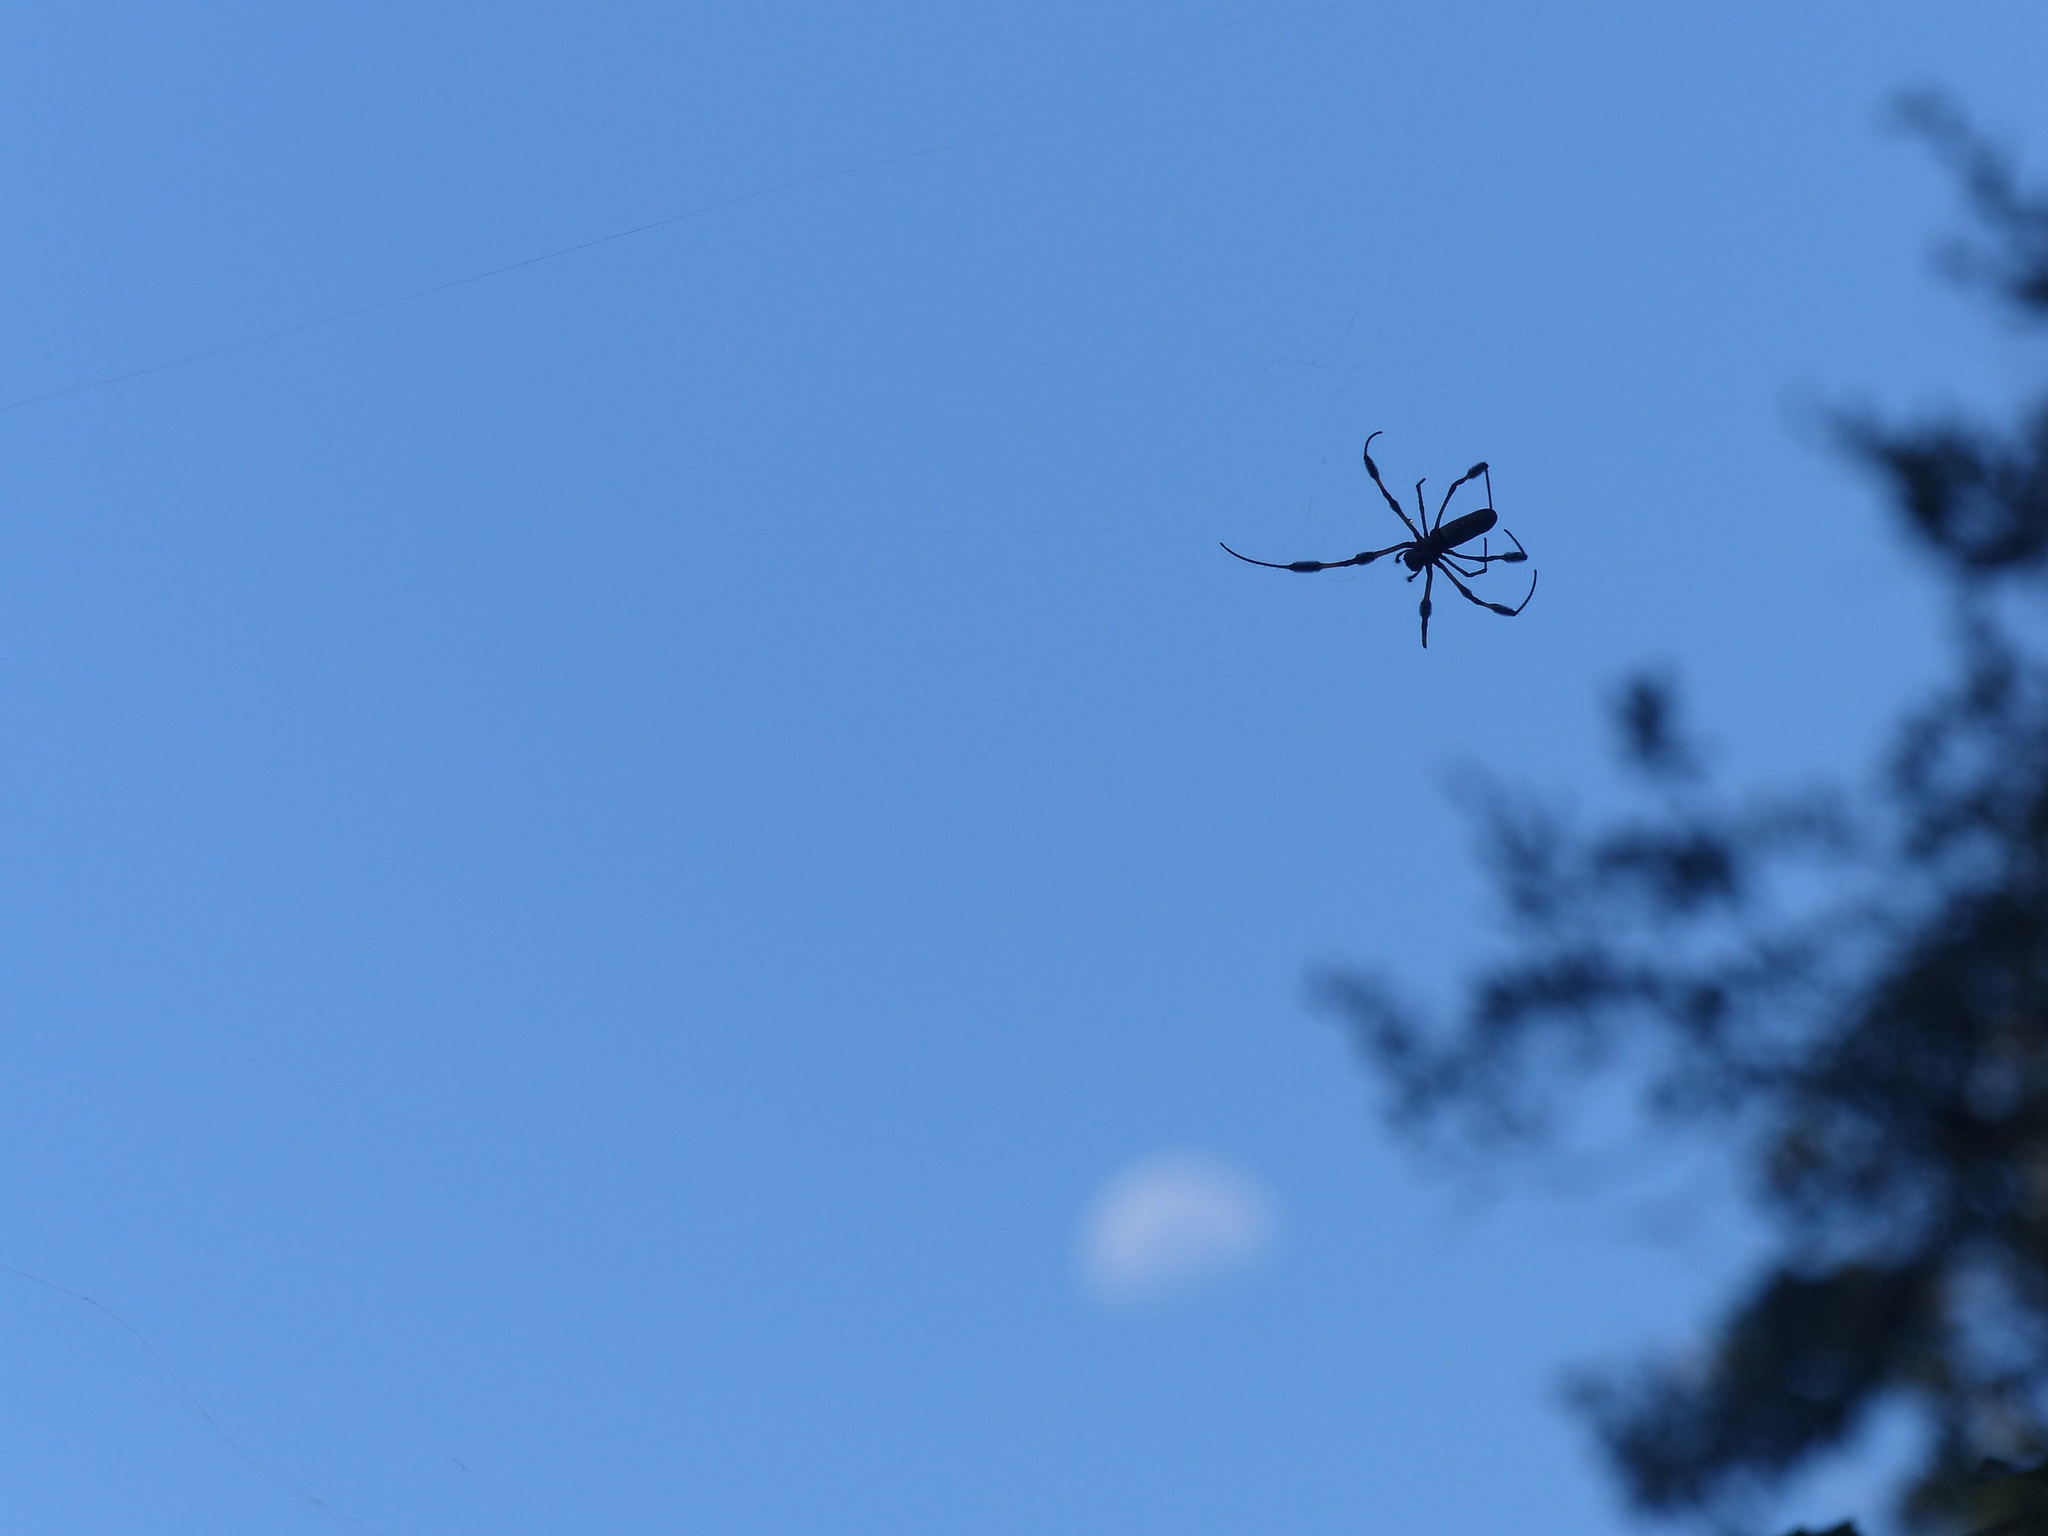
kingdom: Animalia
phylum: Arthropoda
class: Arachnida
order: Araneae
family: Araneidae
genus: Trichonephila
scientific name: Trichonephila clavipes
